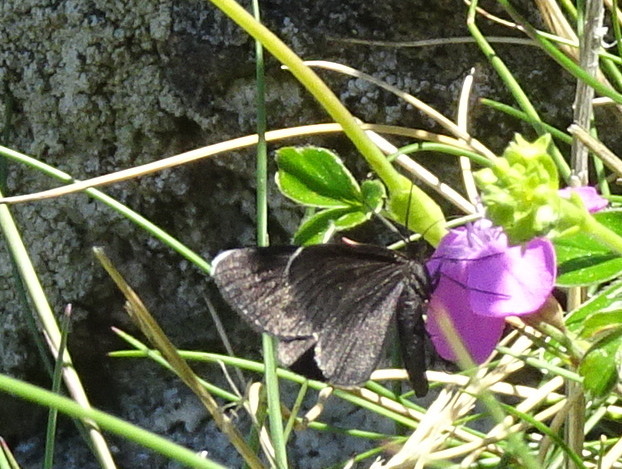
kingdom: Animalia
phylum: Arthropoda
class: Insecta
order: Lepidoptera
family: Geometridae
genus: Odezia
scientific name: Odezia atrata
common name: Chimney sweeper
